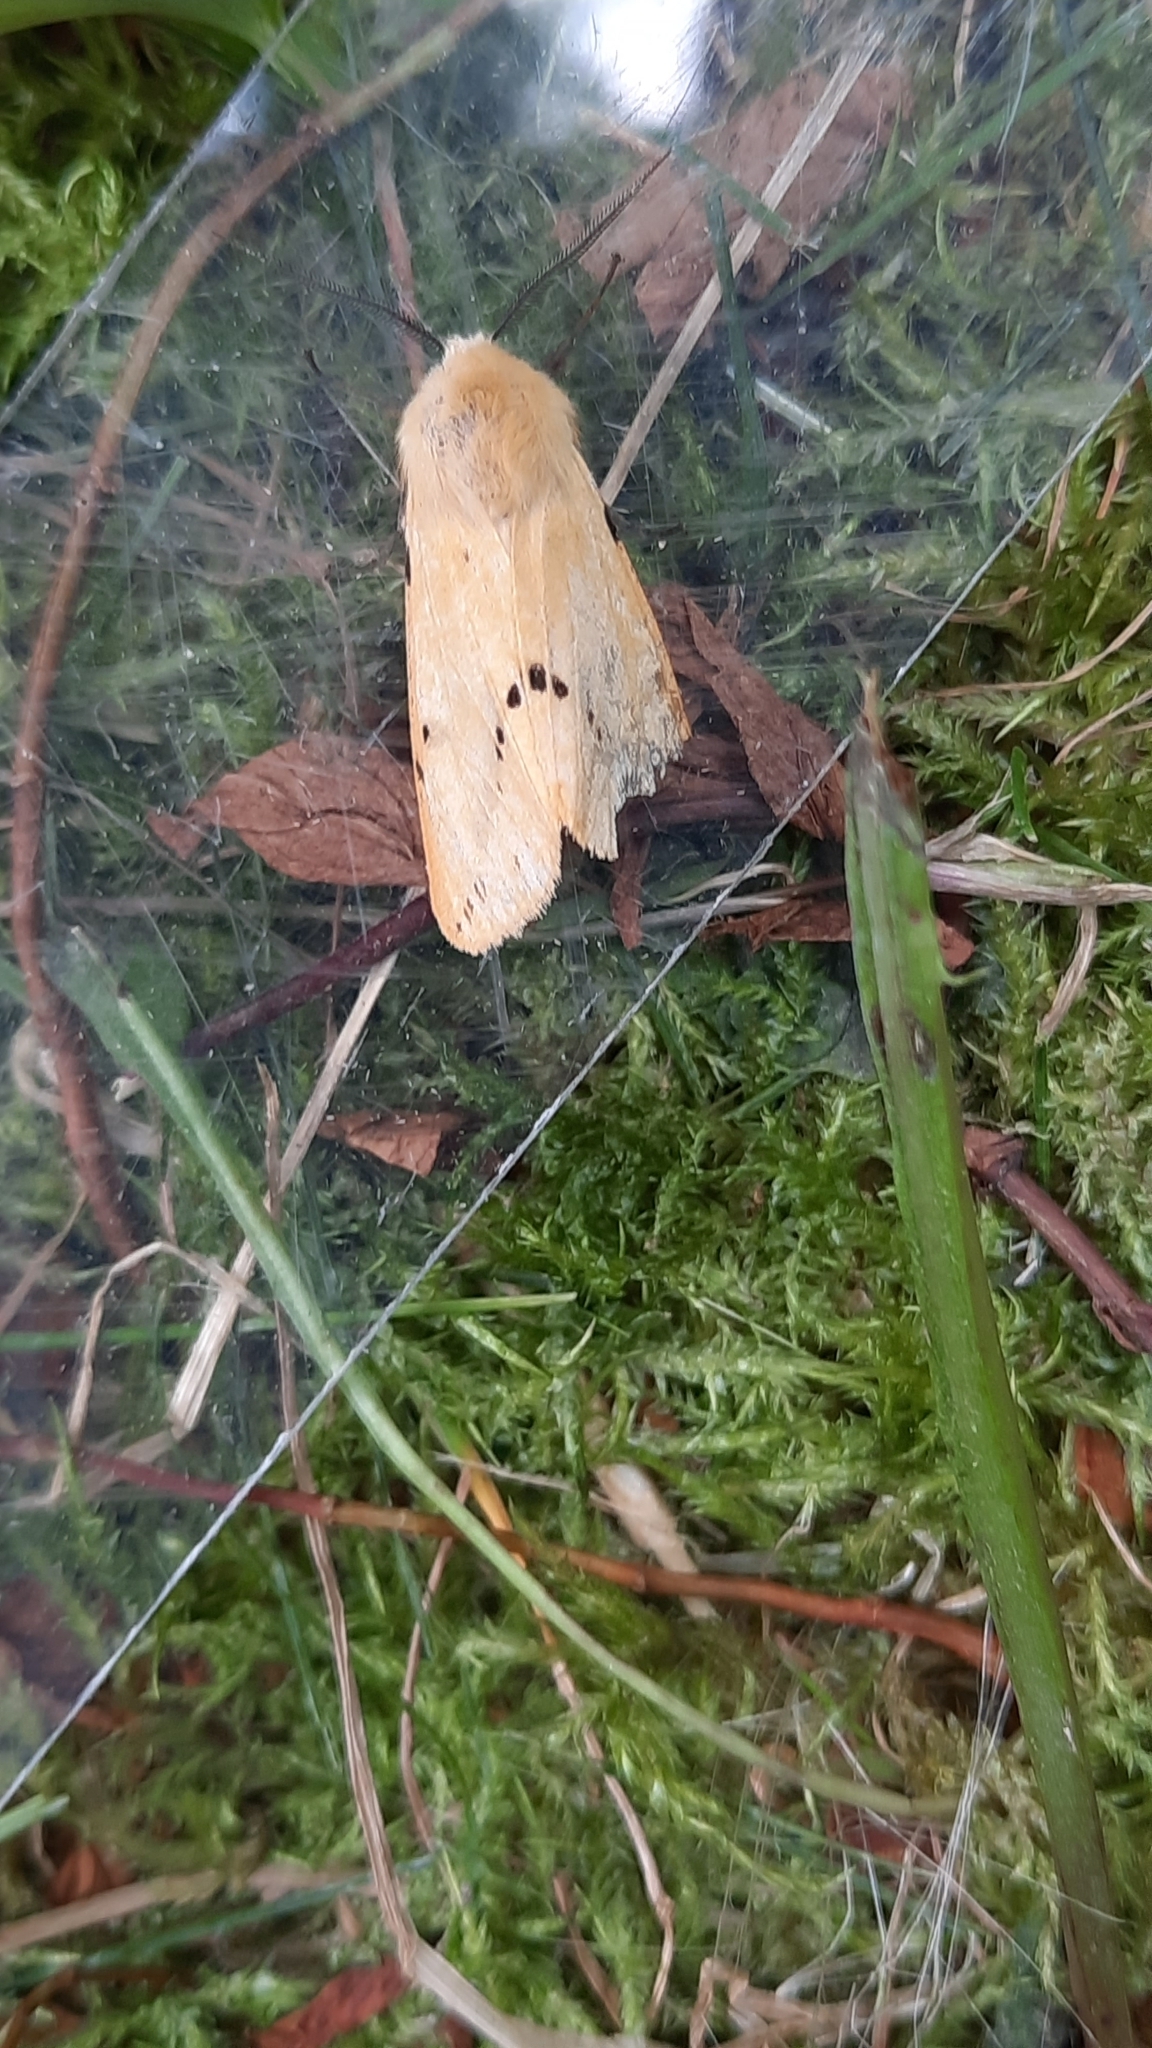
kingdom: Animalia
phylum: Arthropoda
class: Insecta
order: Lepidoptera
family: Erebidae
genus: Spilarctia
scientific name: Spilarctia lutea
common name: Buff ermine
